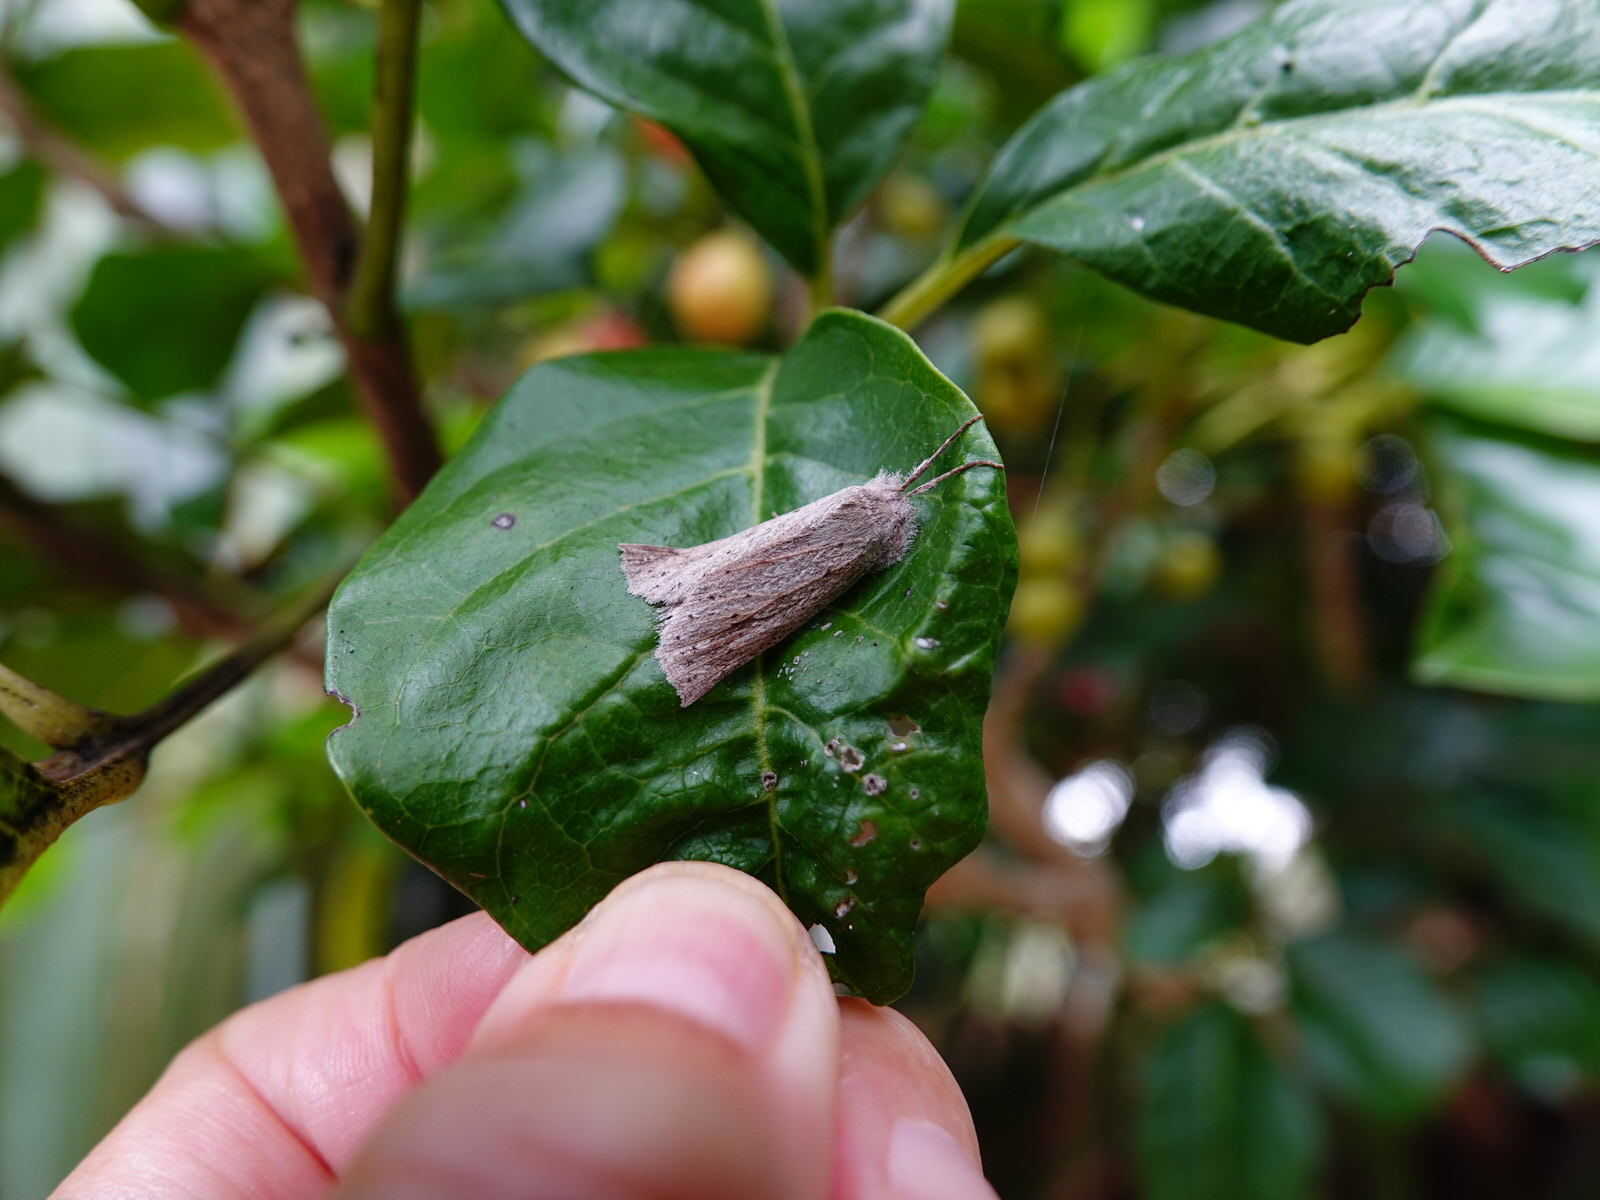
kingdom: Animalia
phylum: Arthropoda
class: Insecta
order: Lepidoptera
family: Geometridae
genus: Declana
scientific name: Declana leptomera
